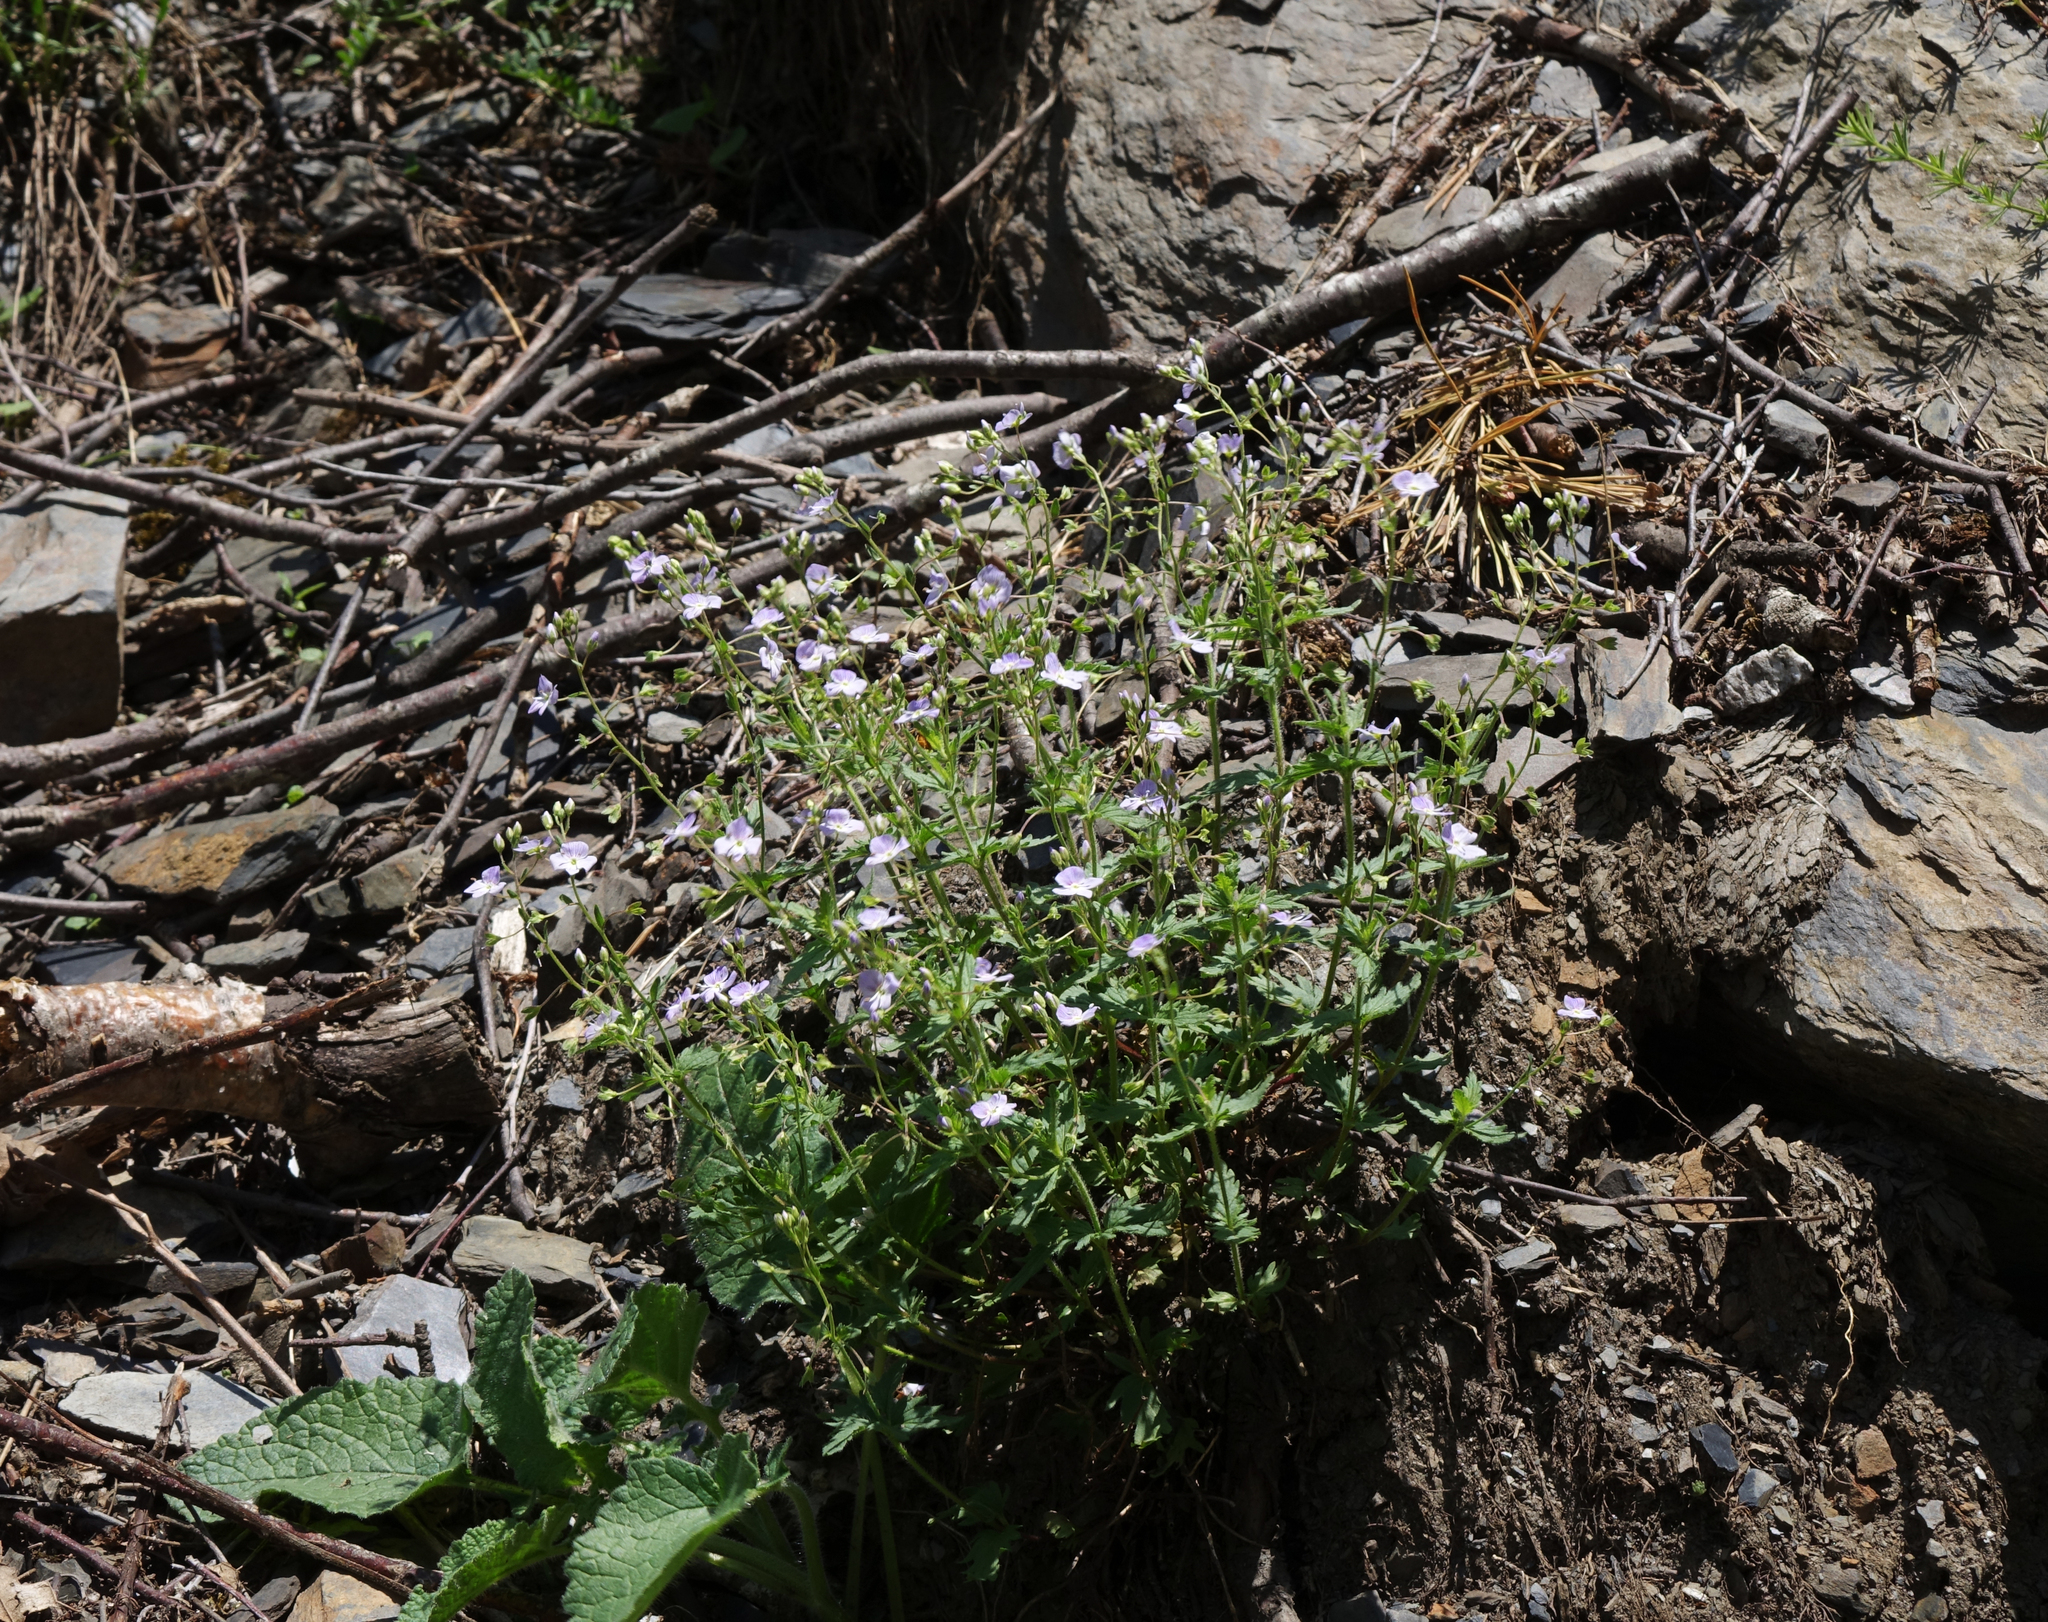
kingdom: Plantae
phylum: Tracheophyta
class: Magnoliopsida
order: Lamiales
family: Plantaginaceae
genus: Veronica
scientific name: Veronica peduncularis
